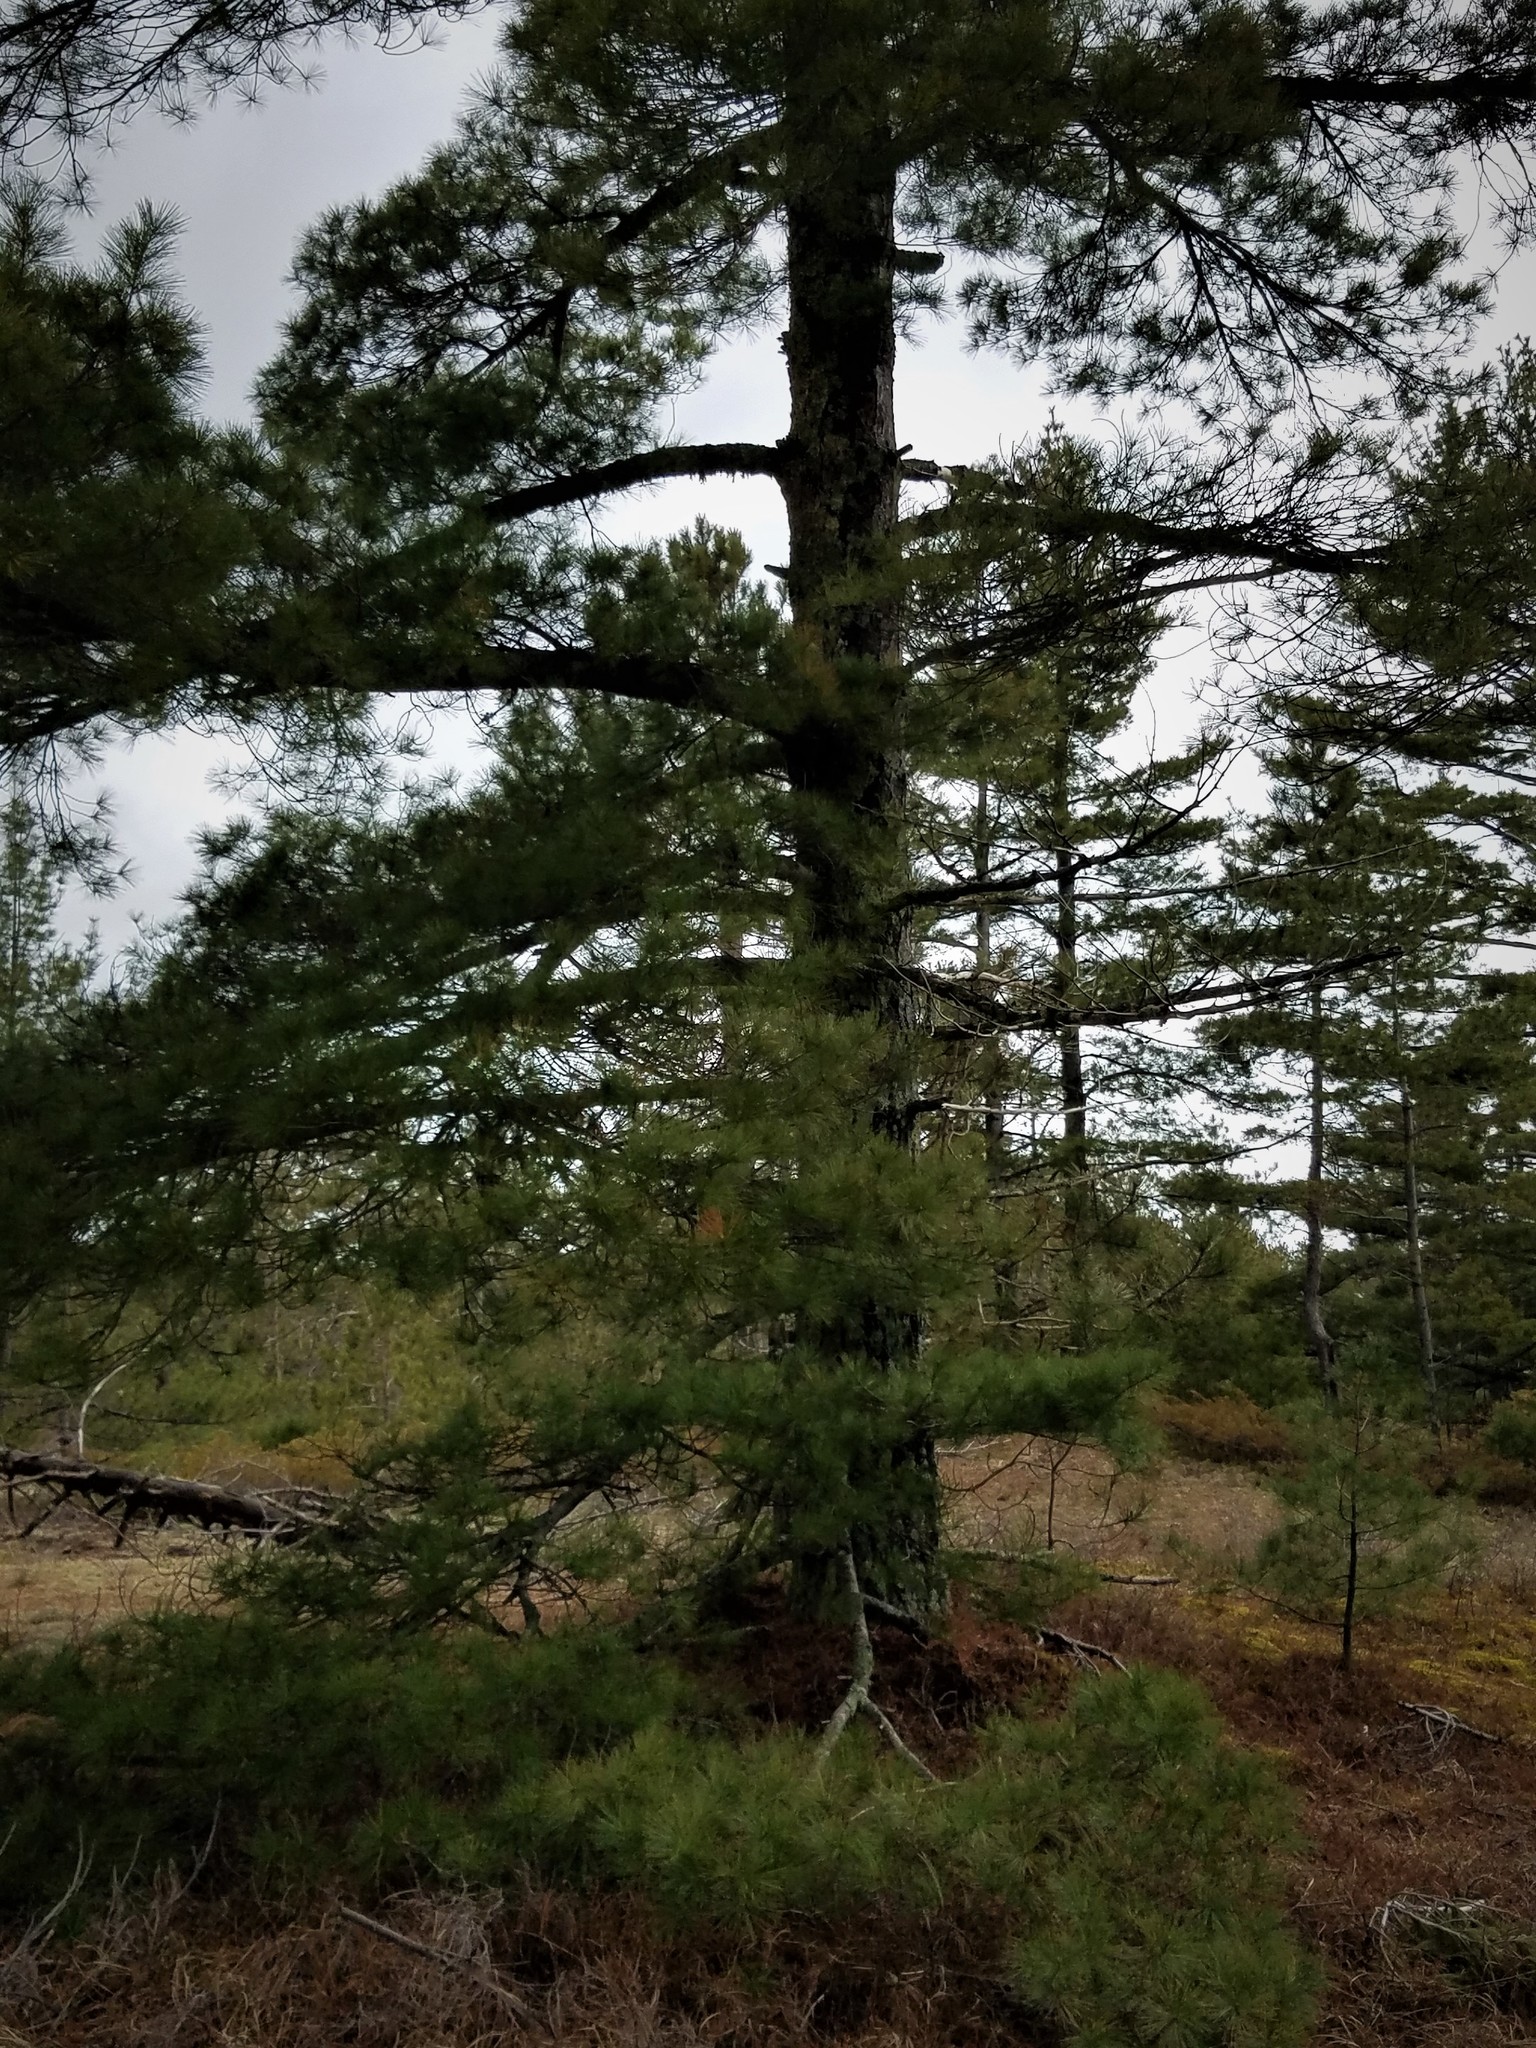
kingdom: Plantae
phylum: Tracheophyta
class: Pinopsida
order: Pinales
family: Pinaceae
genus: Pinus
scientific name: Pinus strobus
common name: Weymouth pine
